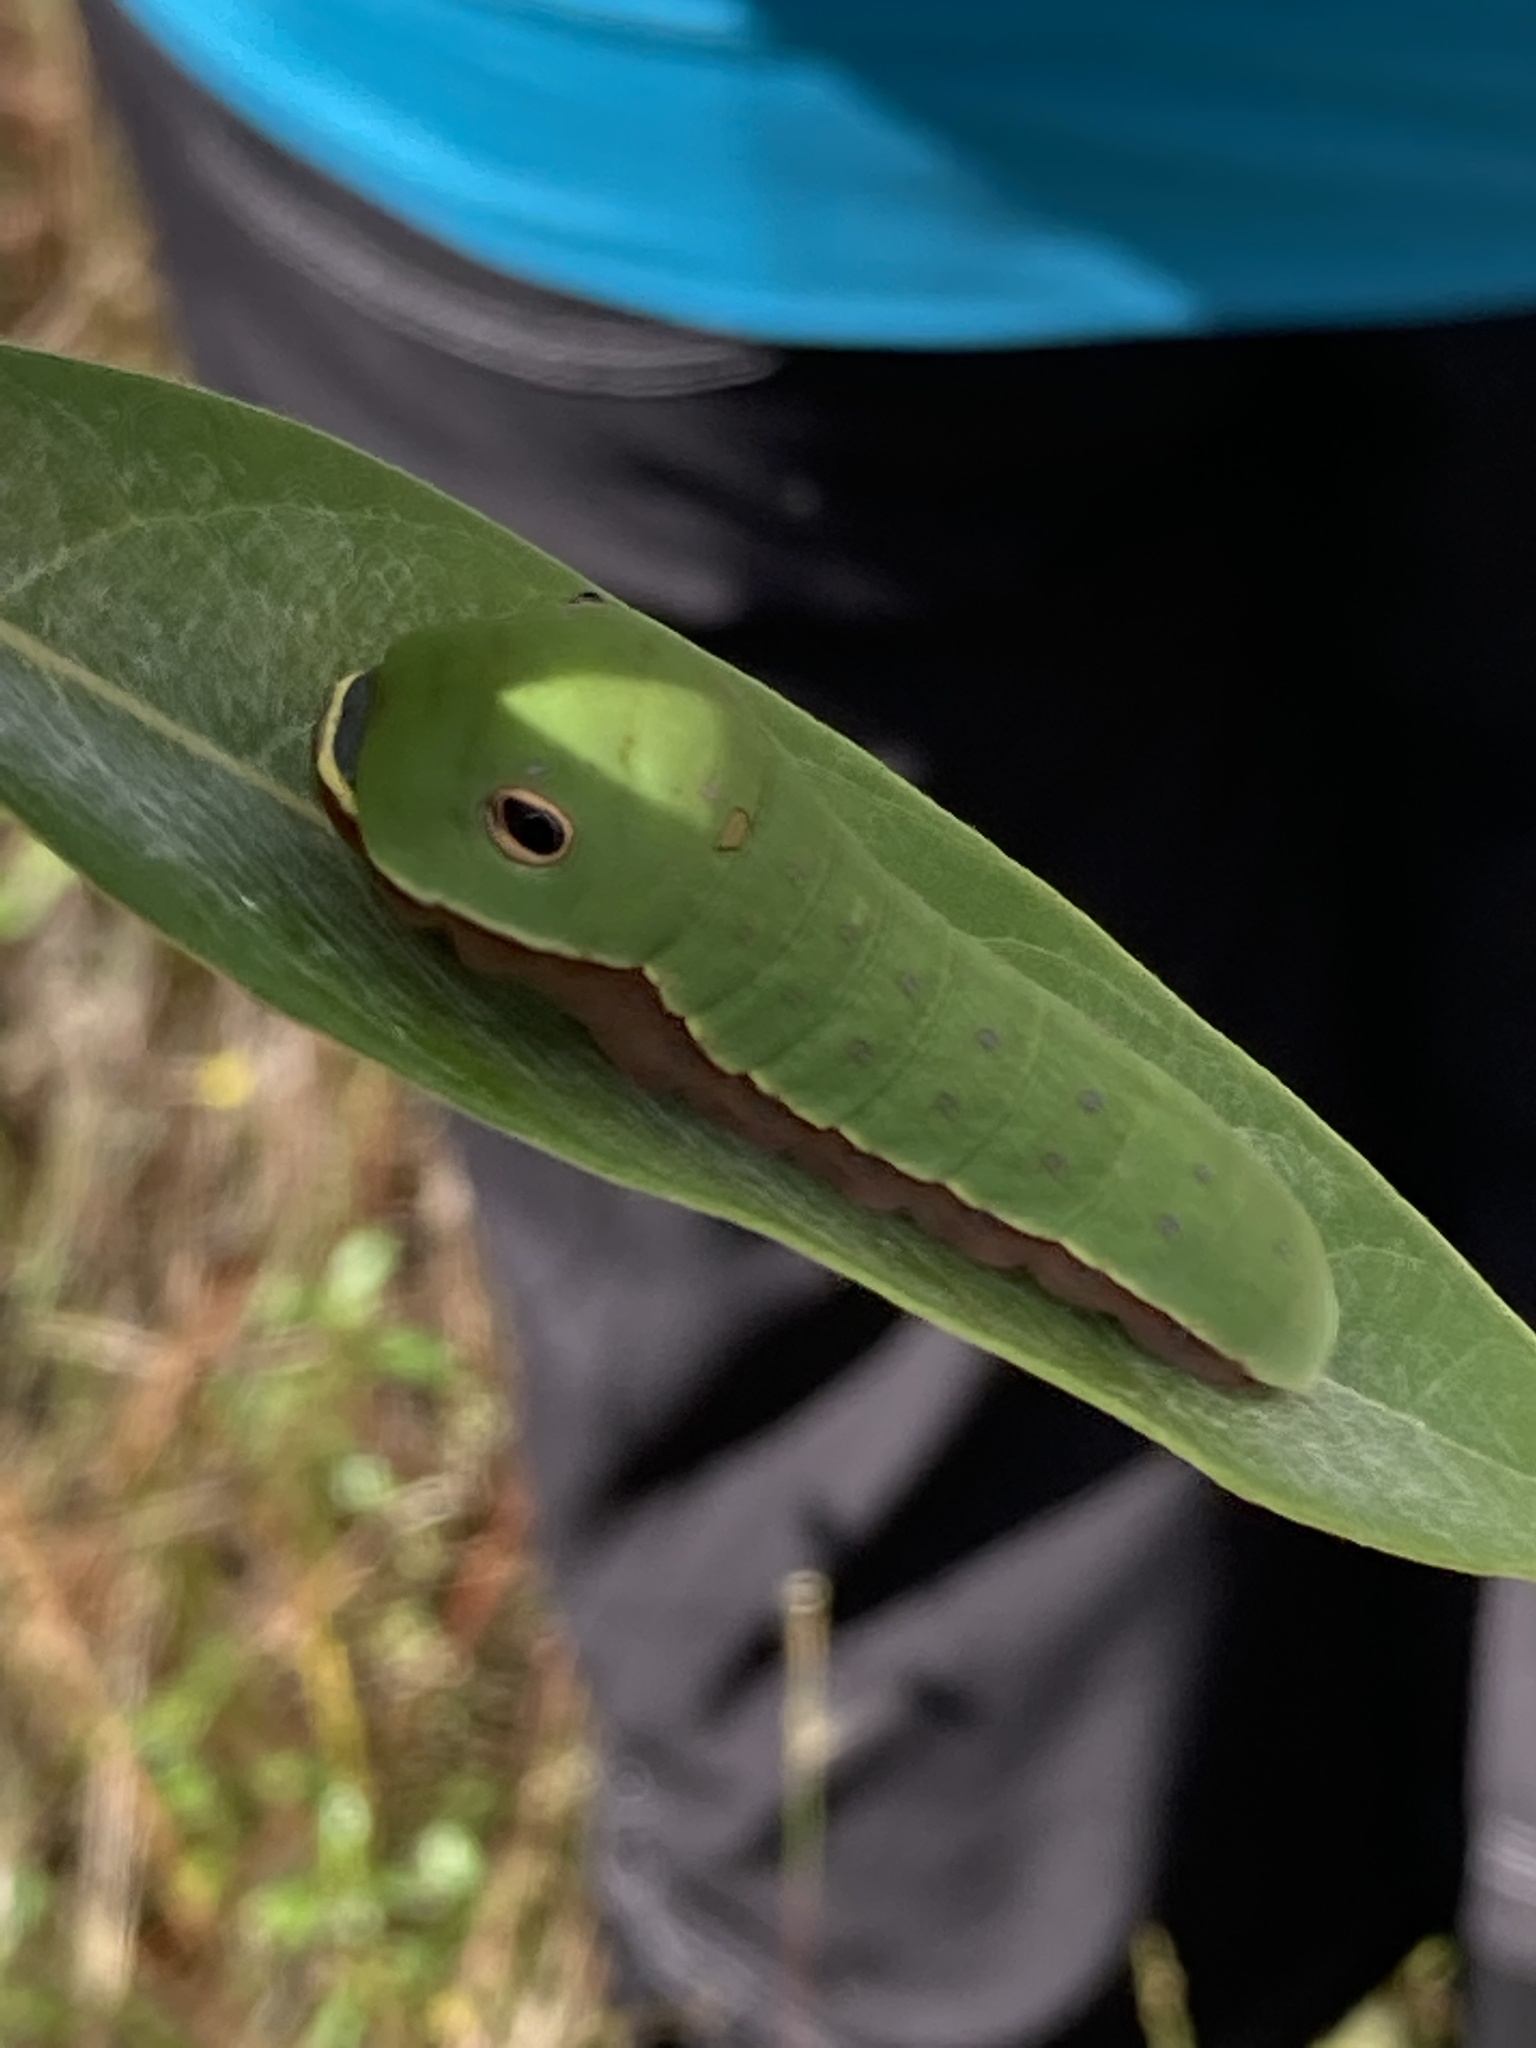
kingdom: Animalia
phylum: Arthropoda
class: Insecta
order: Lepidoptera
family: Papilionidae
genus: Papilio
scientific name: Papilio palamedes
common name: Palamedes swallowtail
